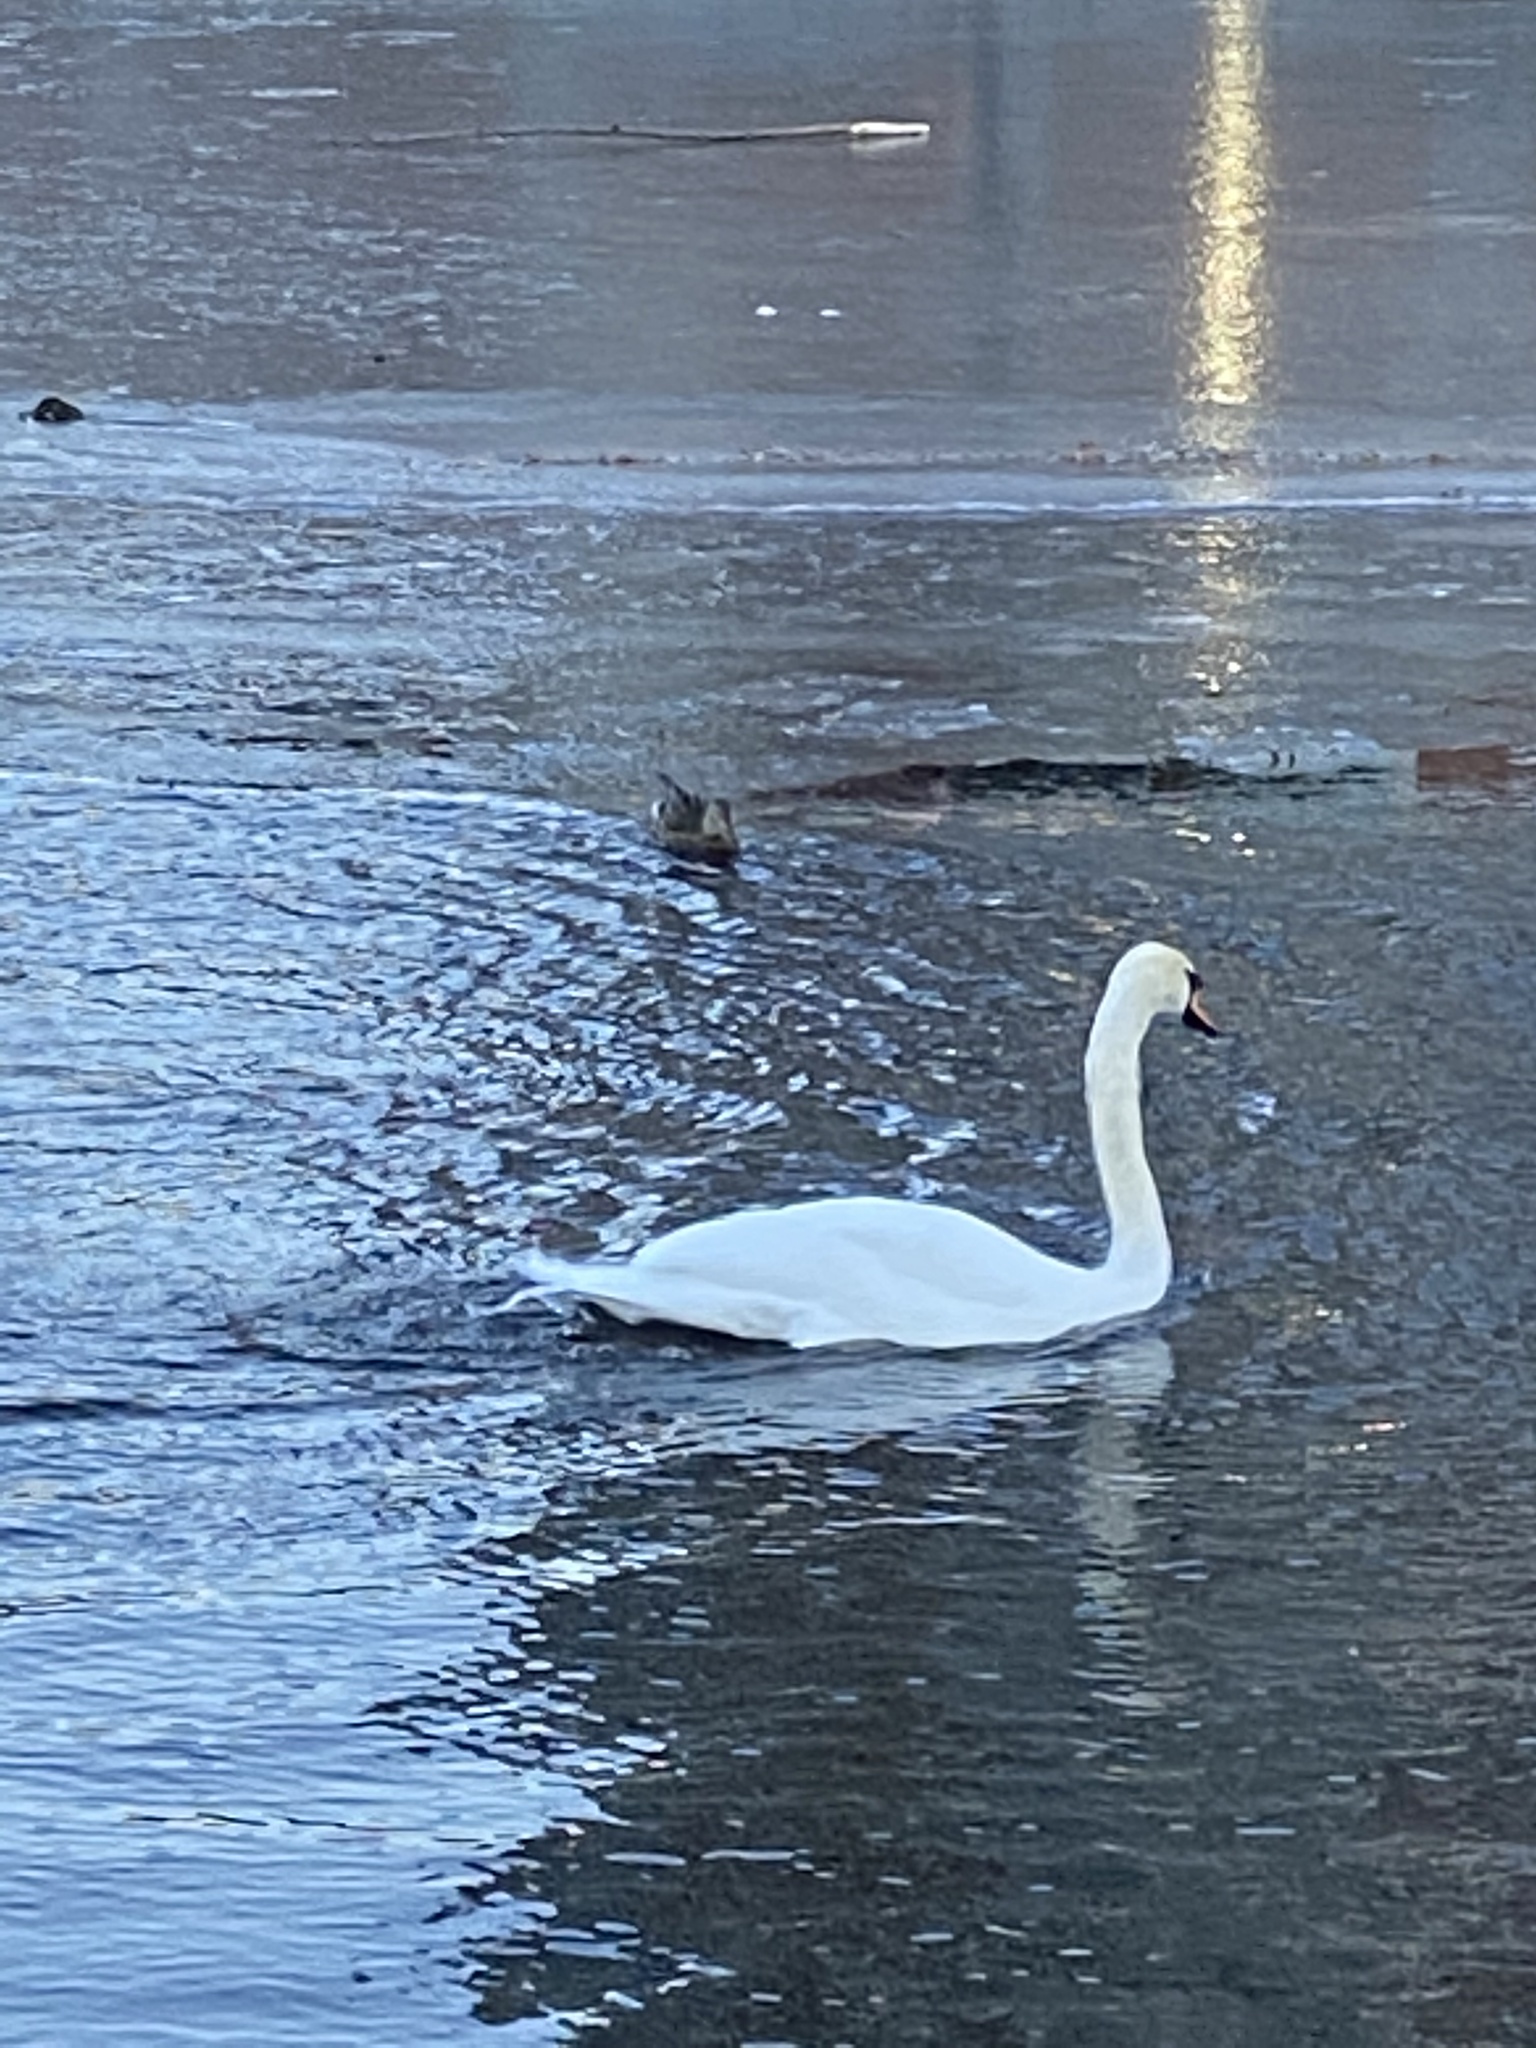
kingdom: Animalia
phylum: Chordata
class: Aves
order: Anseriformes
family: Anatidae
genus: Cygnus
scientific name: Cygnus olor
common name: Mute swan
